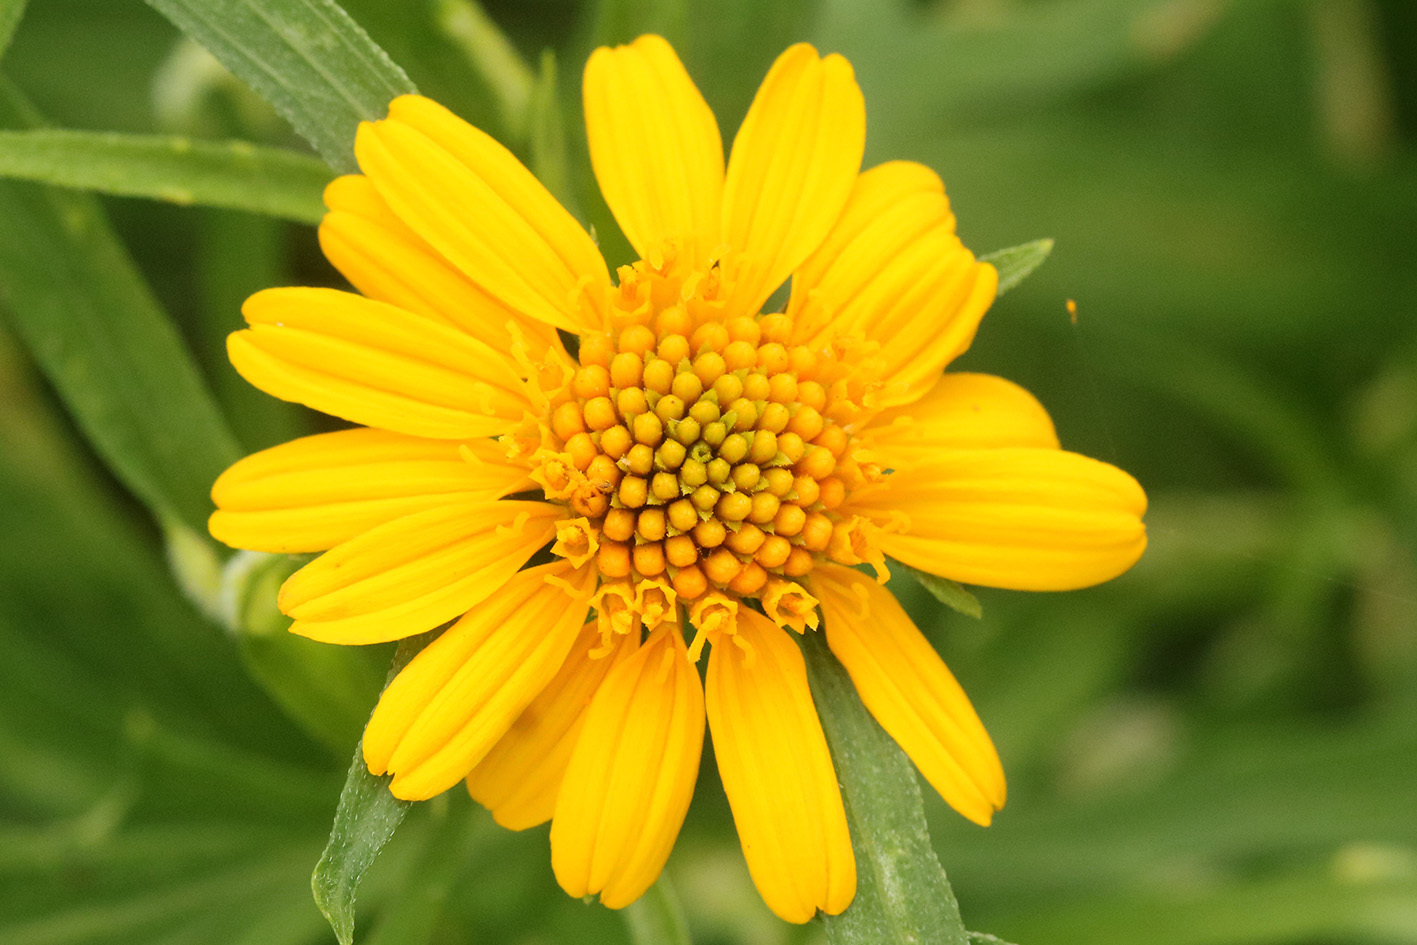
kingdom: Plantae
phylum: Tracheophyta
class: Magnoliopsida
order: Asterales
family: Asteraceae
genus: Pascalia
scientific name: Pascalia glauca
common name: Beach creeping oxeye
